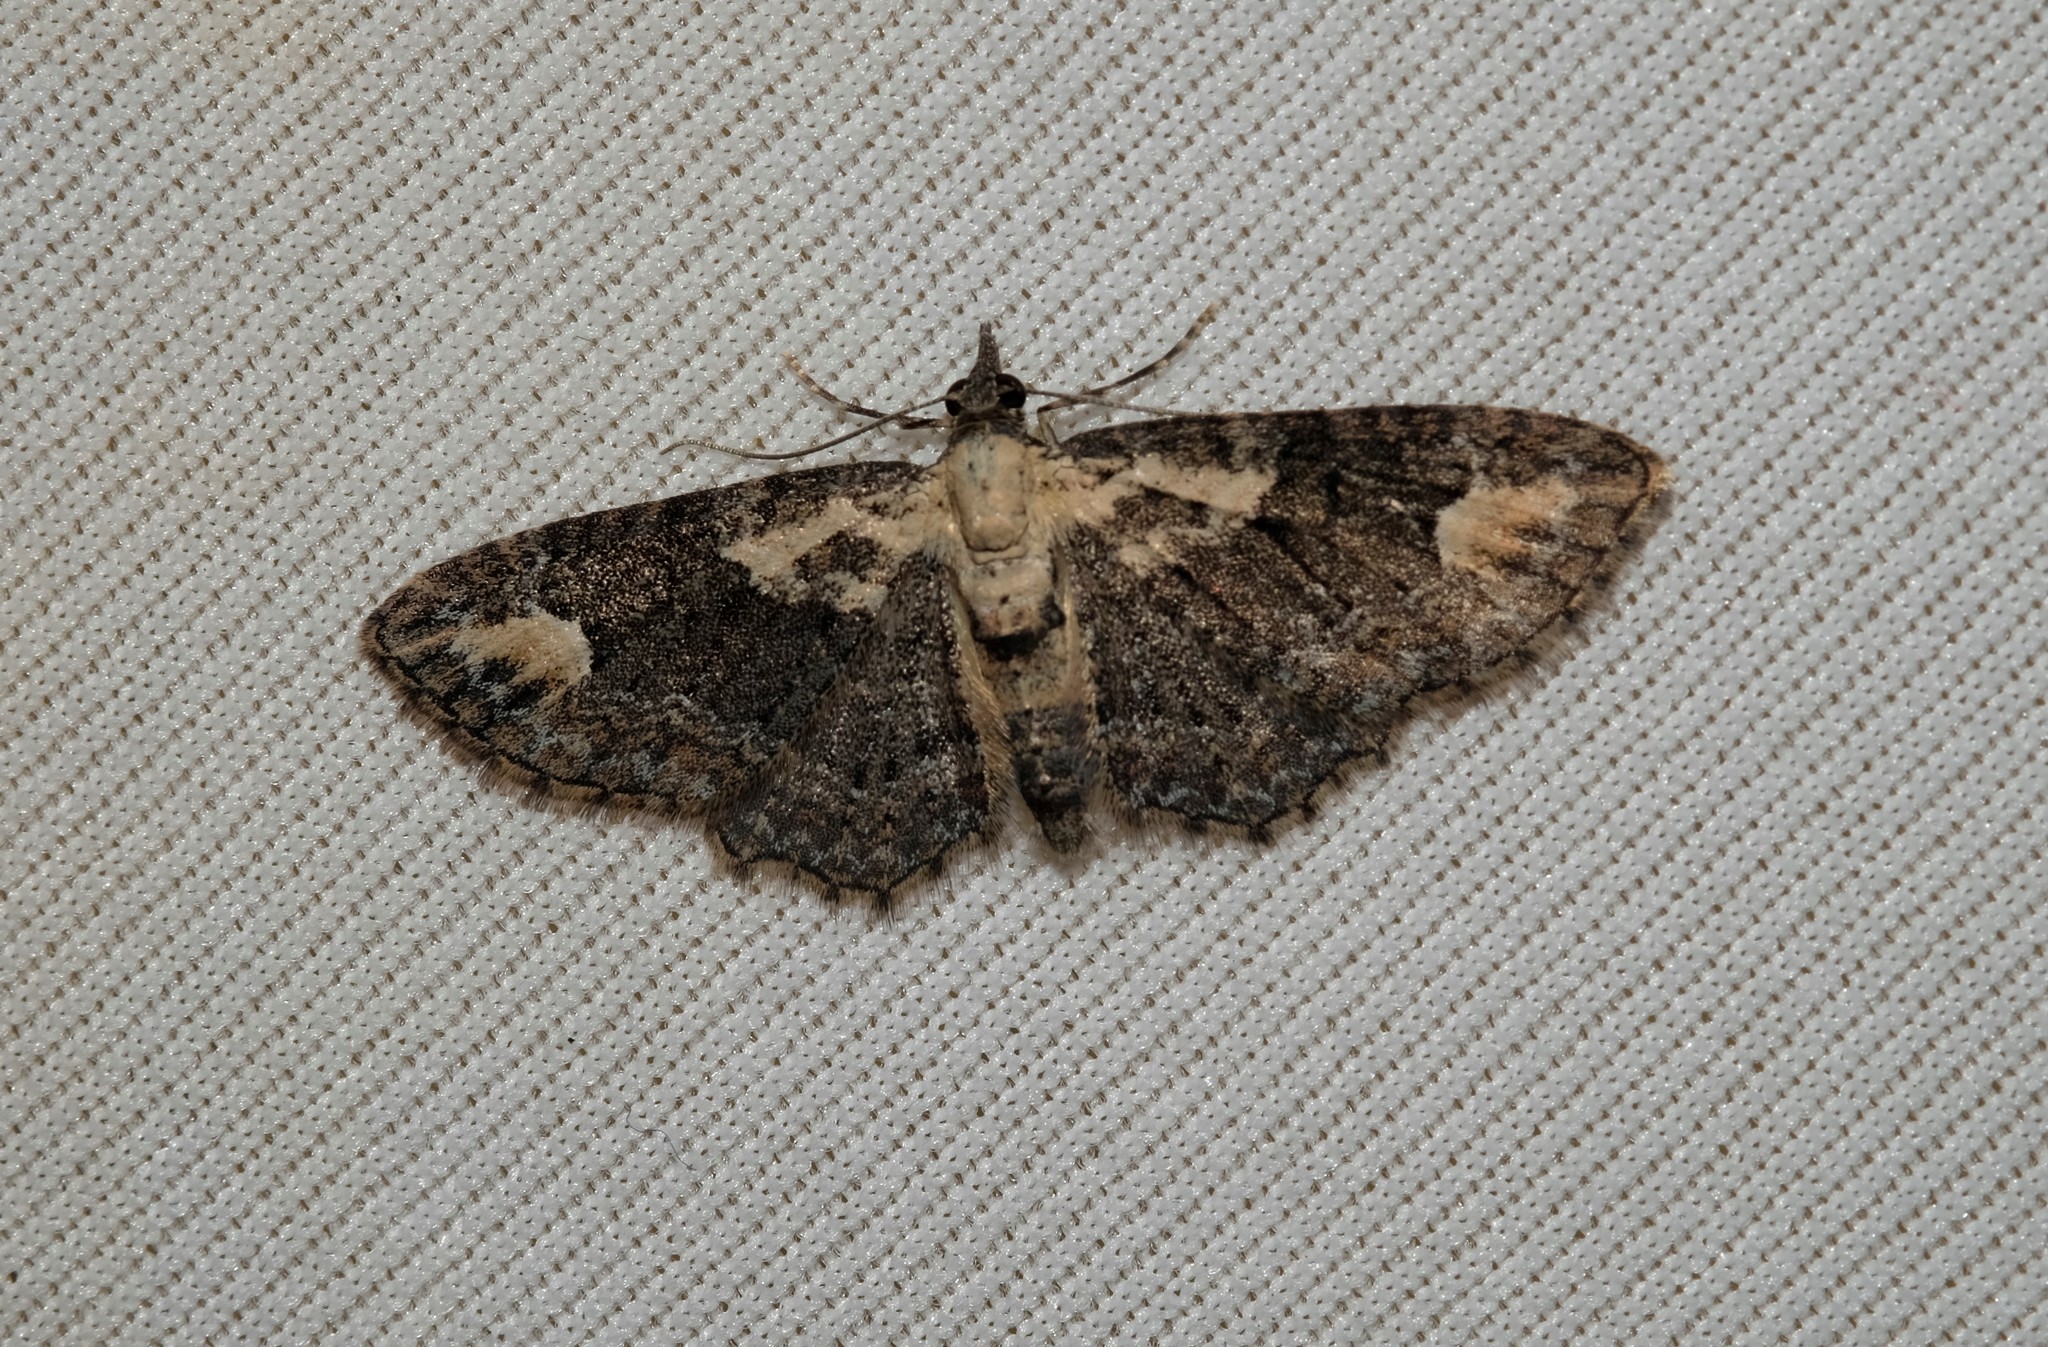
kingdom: Animalia
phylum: Arthropoda
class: Insecta
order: Lepidoptera
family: Geometridae
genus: Pasiphilodes
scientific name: Pasiphilodes testulata
